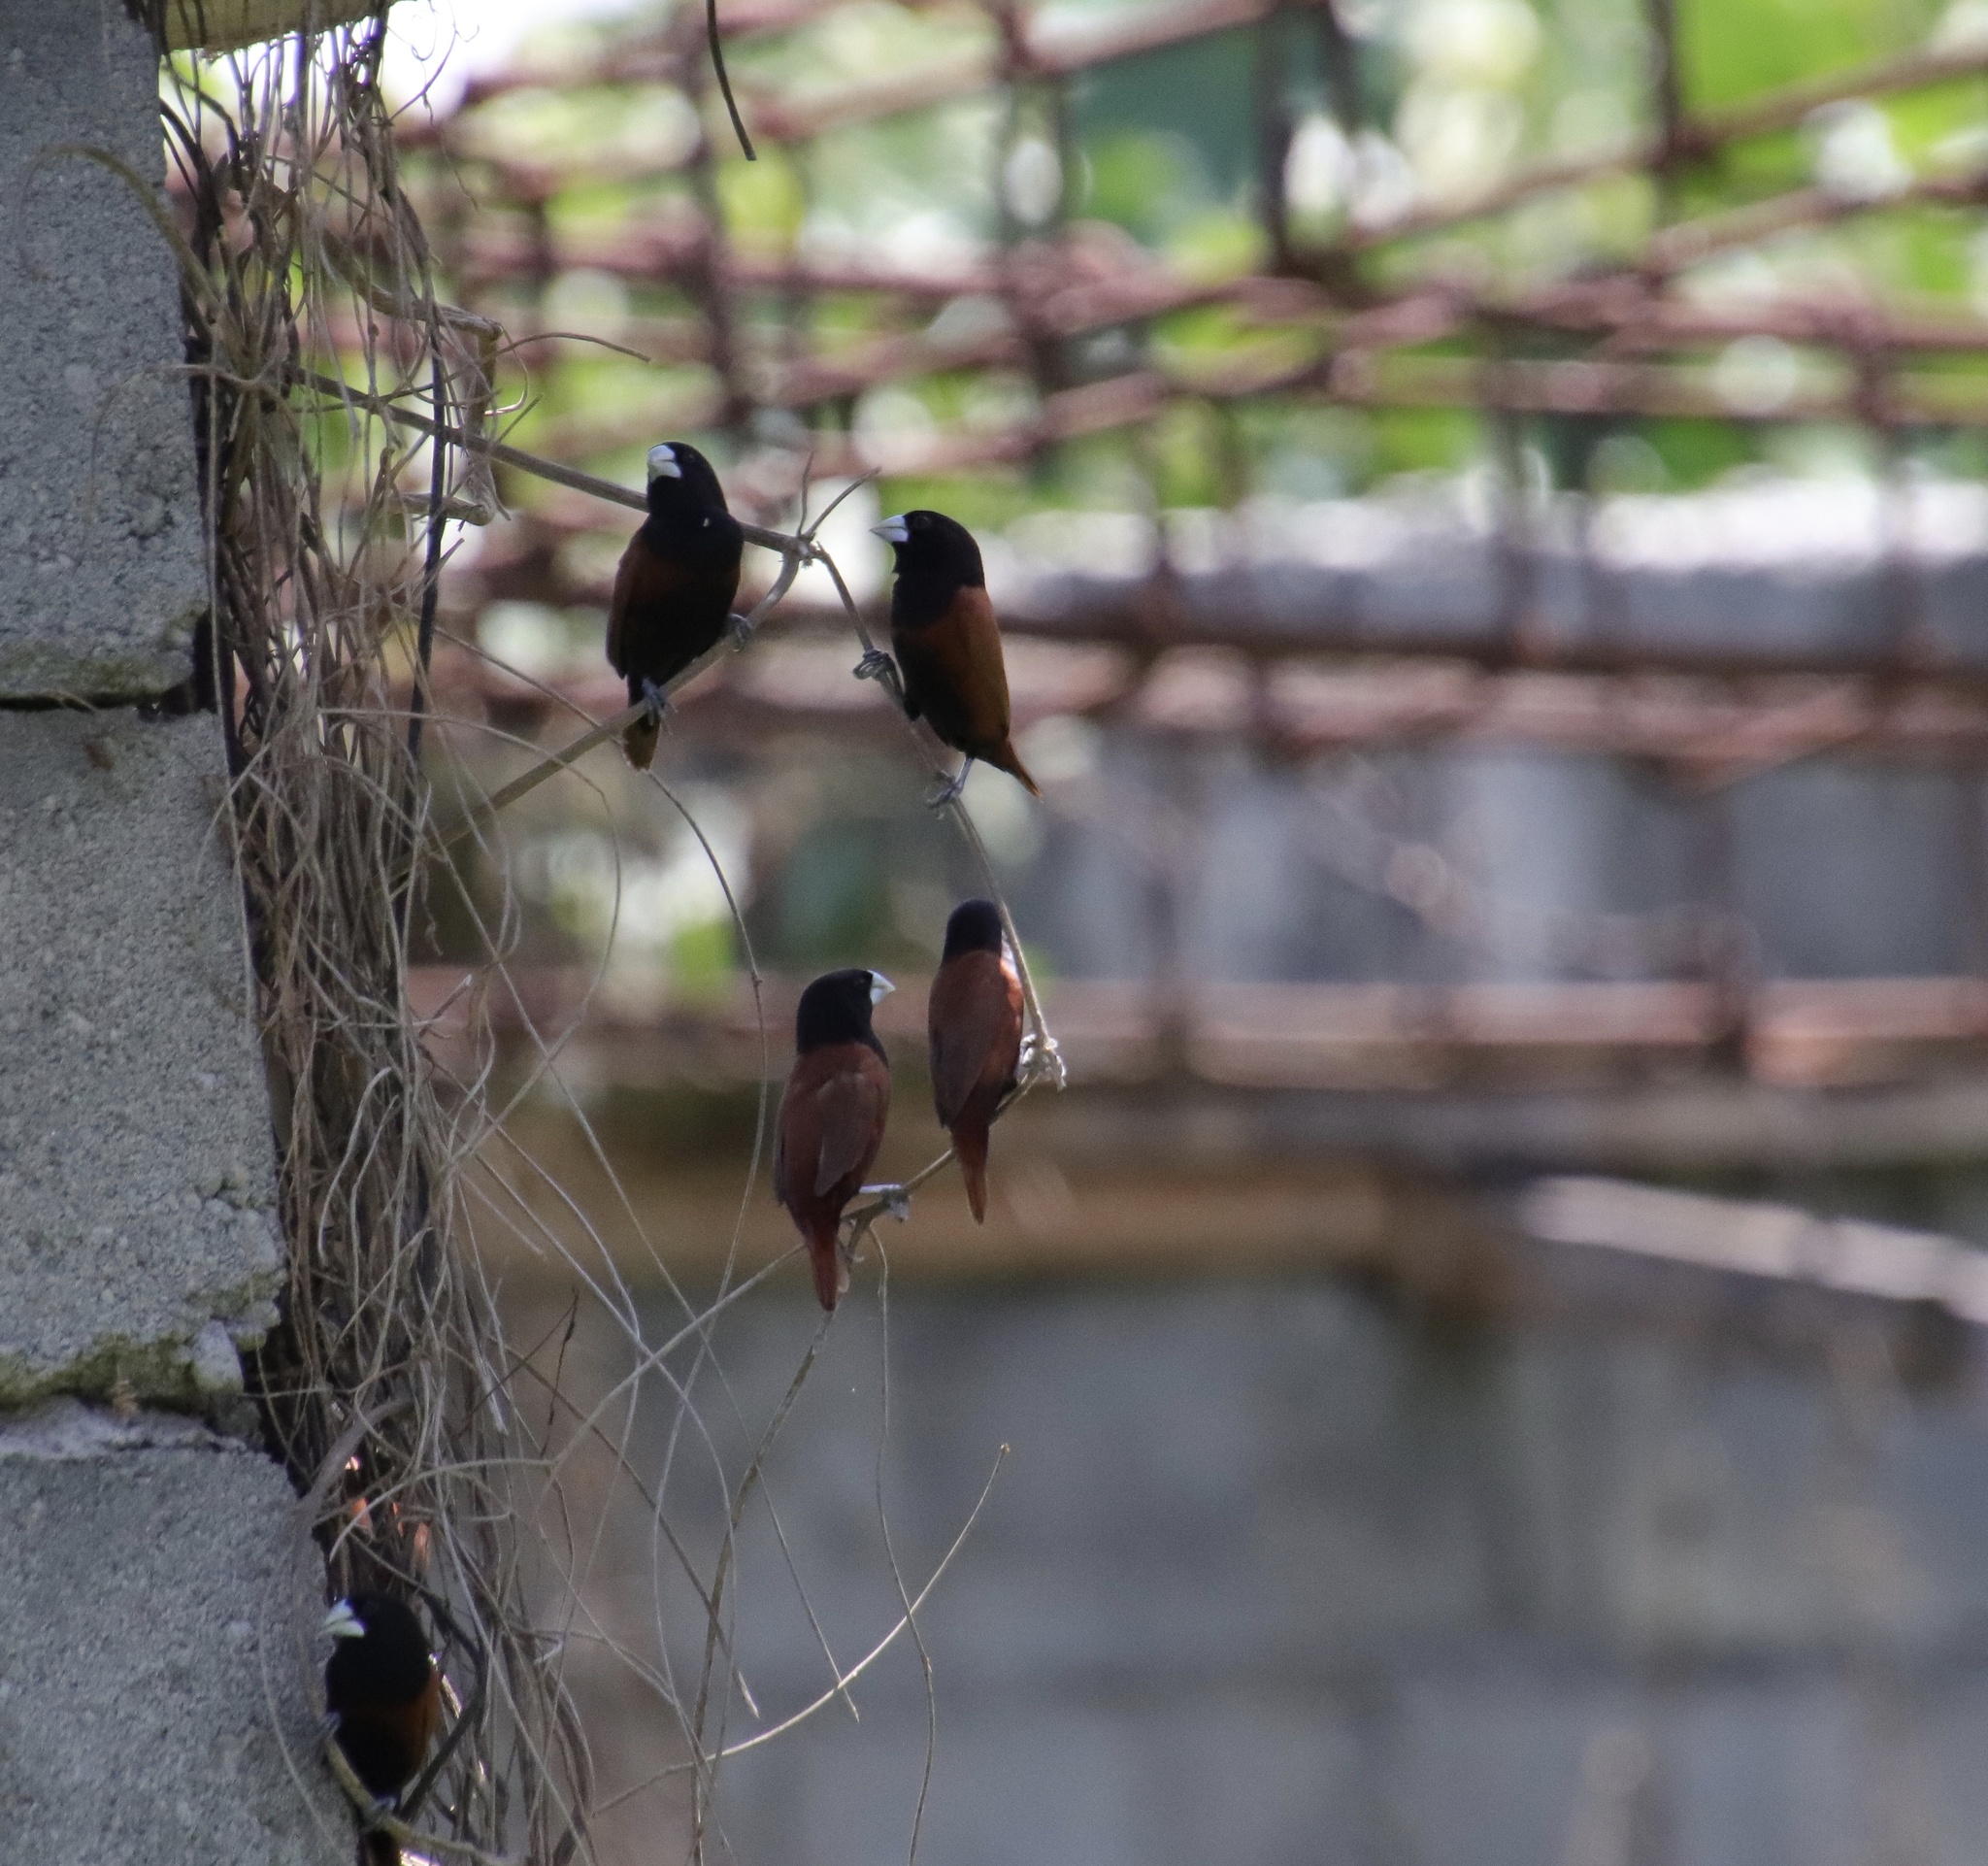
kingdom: Animalia
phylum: Chordata
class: Aves
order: Passeriformes
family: Estrildidae
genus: Lonchura
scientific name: Lonchura atricapilla
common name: Chestnut munia
